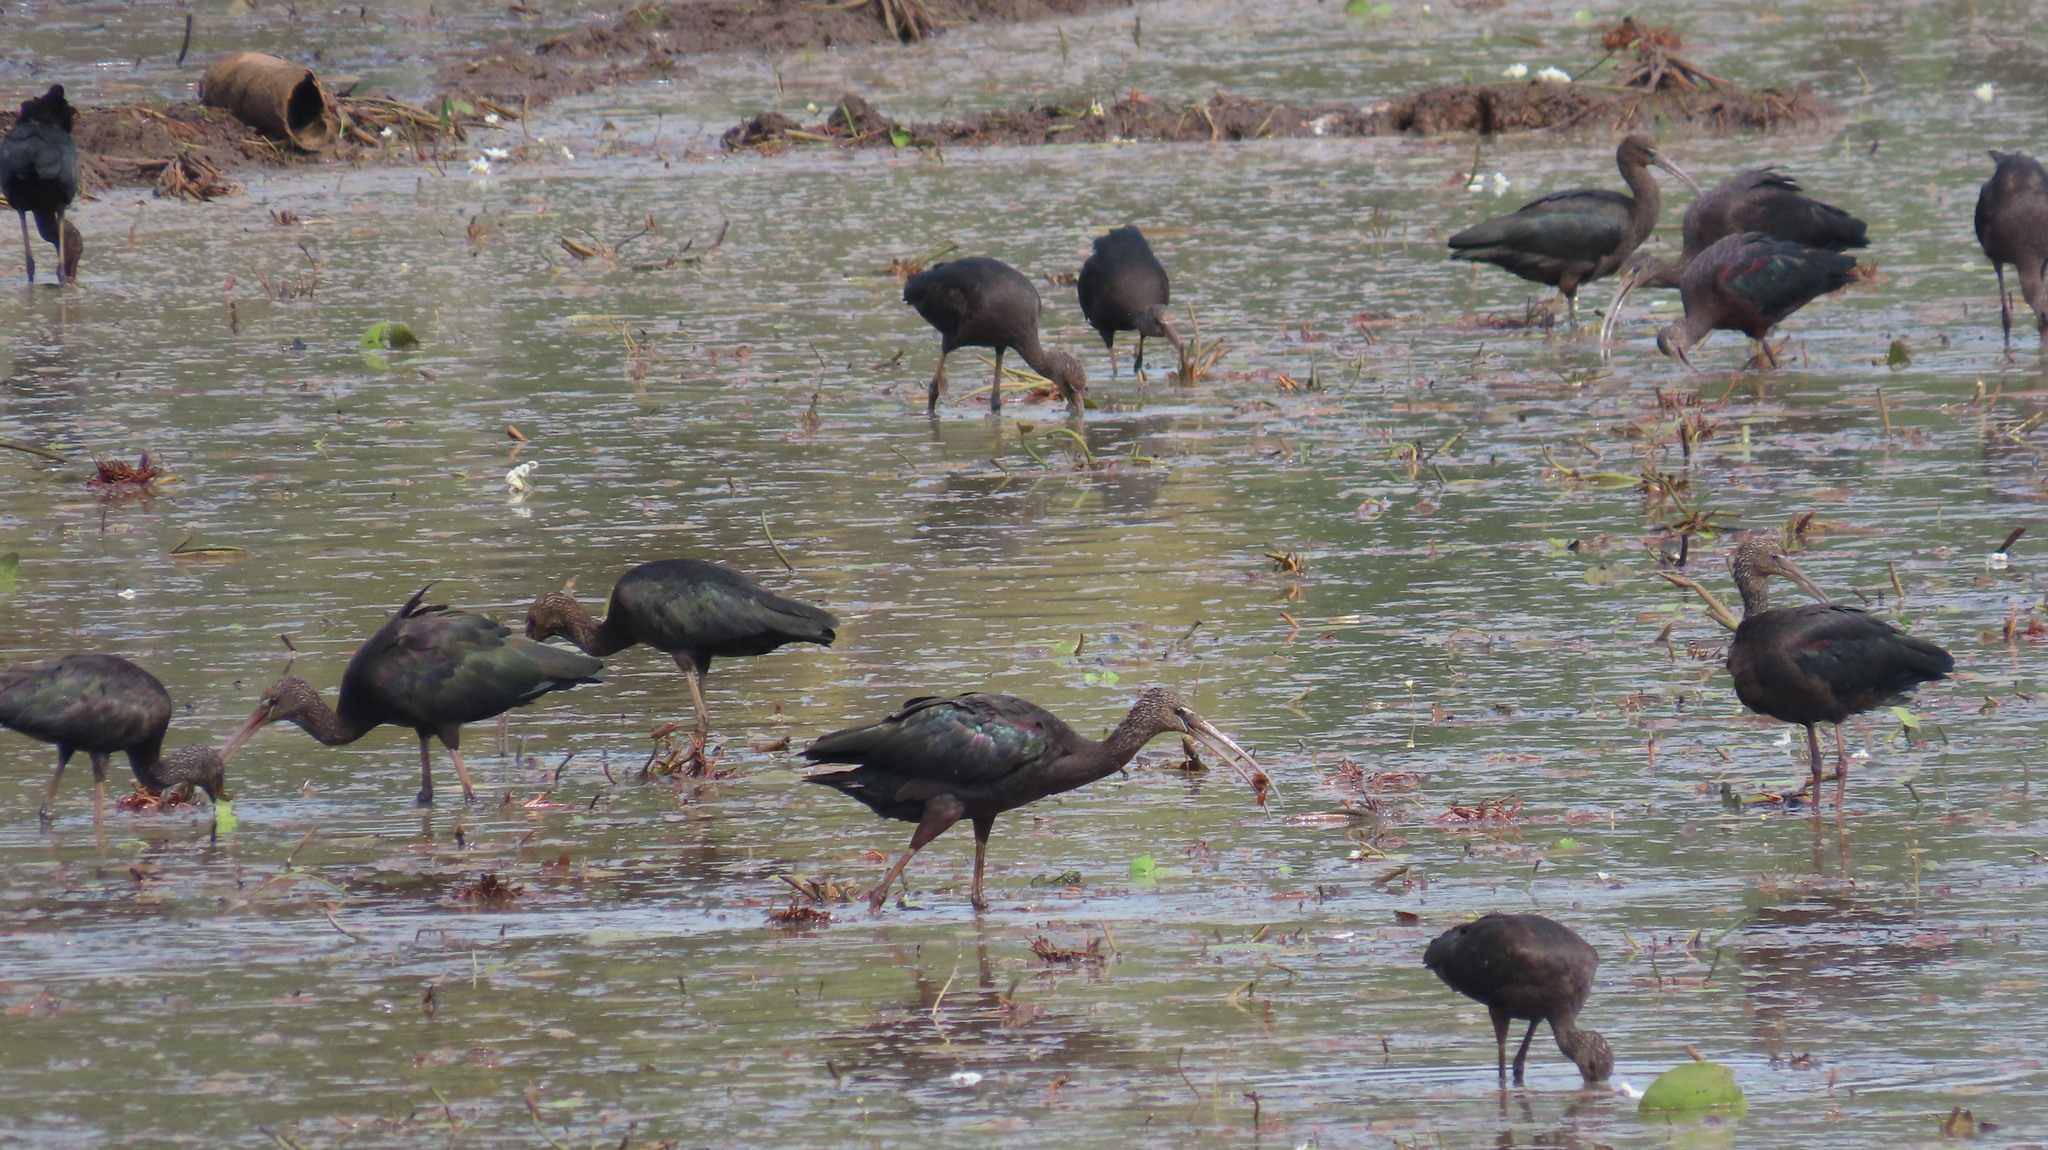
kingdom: Animalia
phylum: Chordata
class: Aves
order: Pelecaniformes
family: Threskiornithidae
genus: Plegadis
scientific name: Plegadis falcinellus
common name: Glossy ibis
